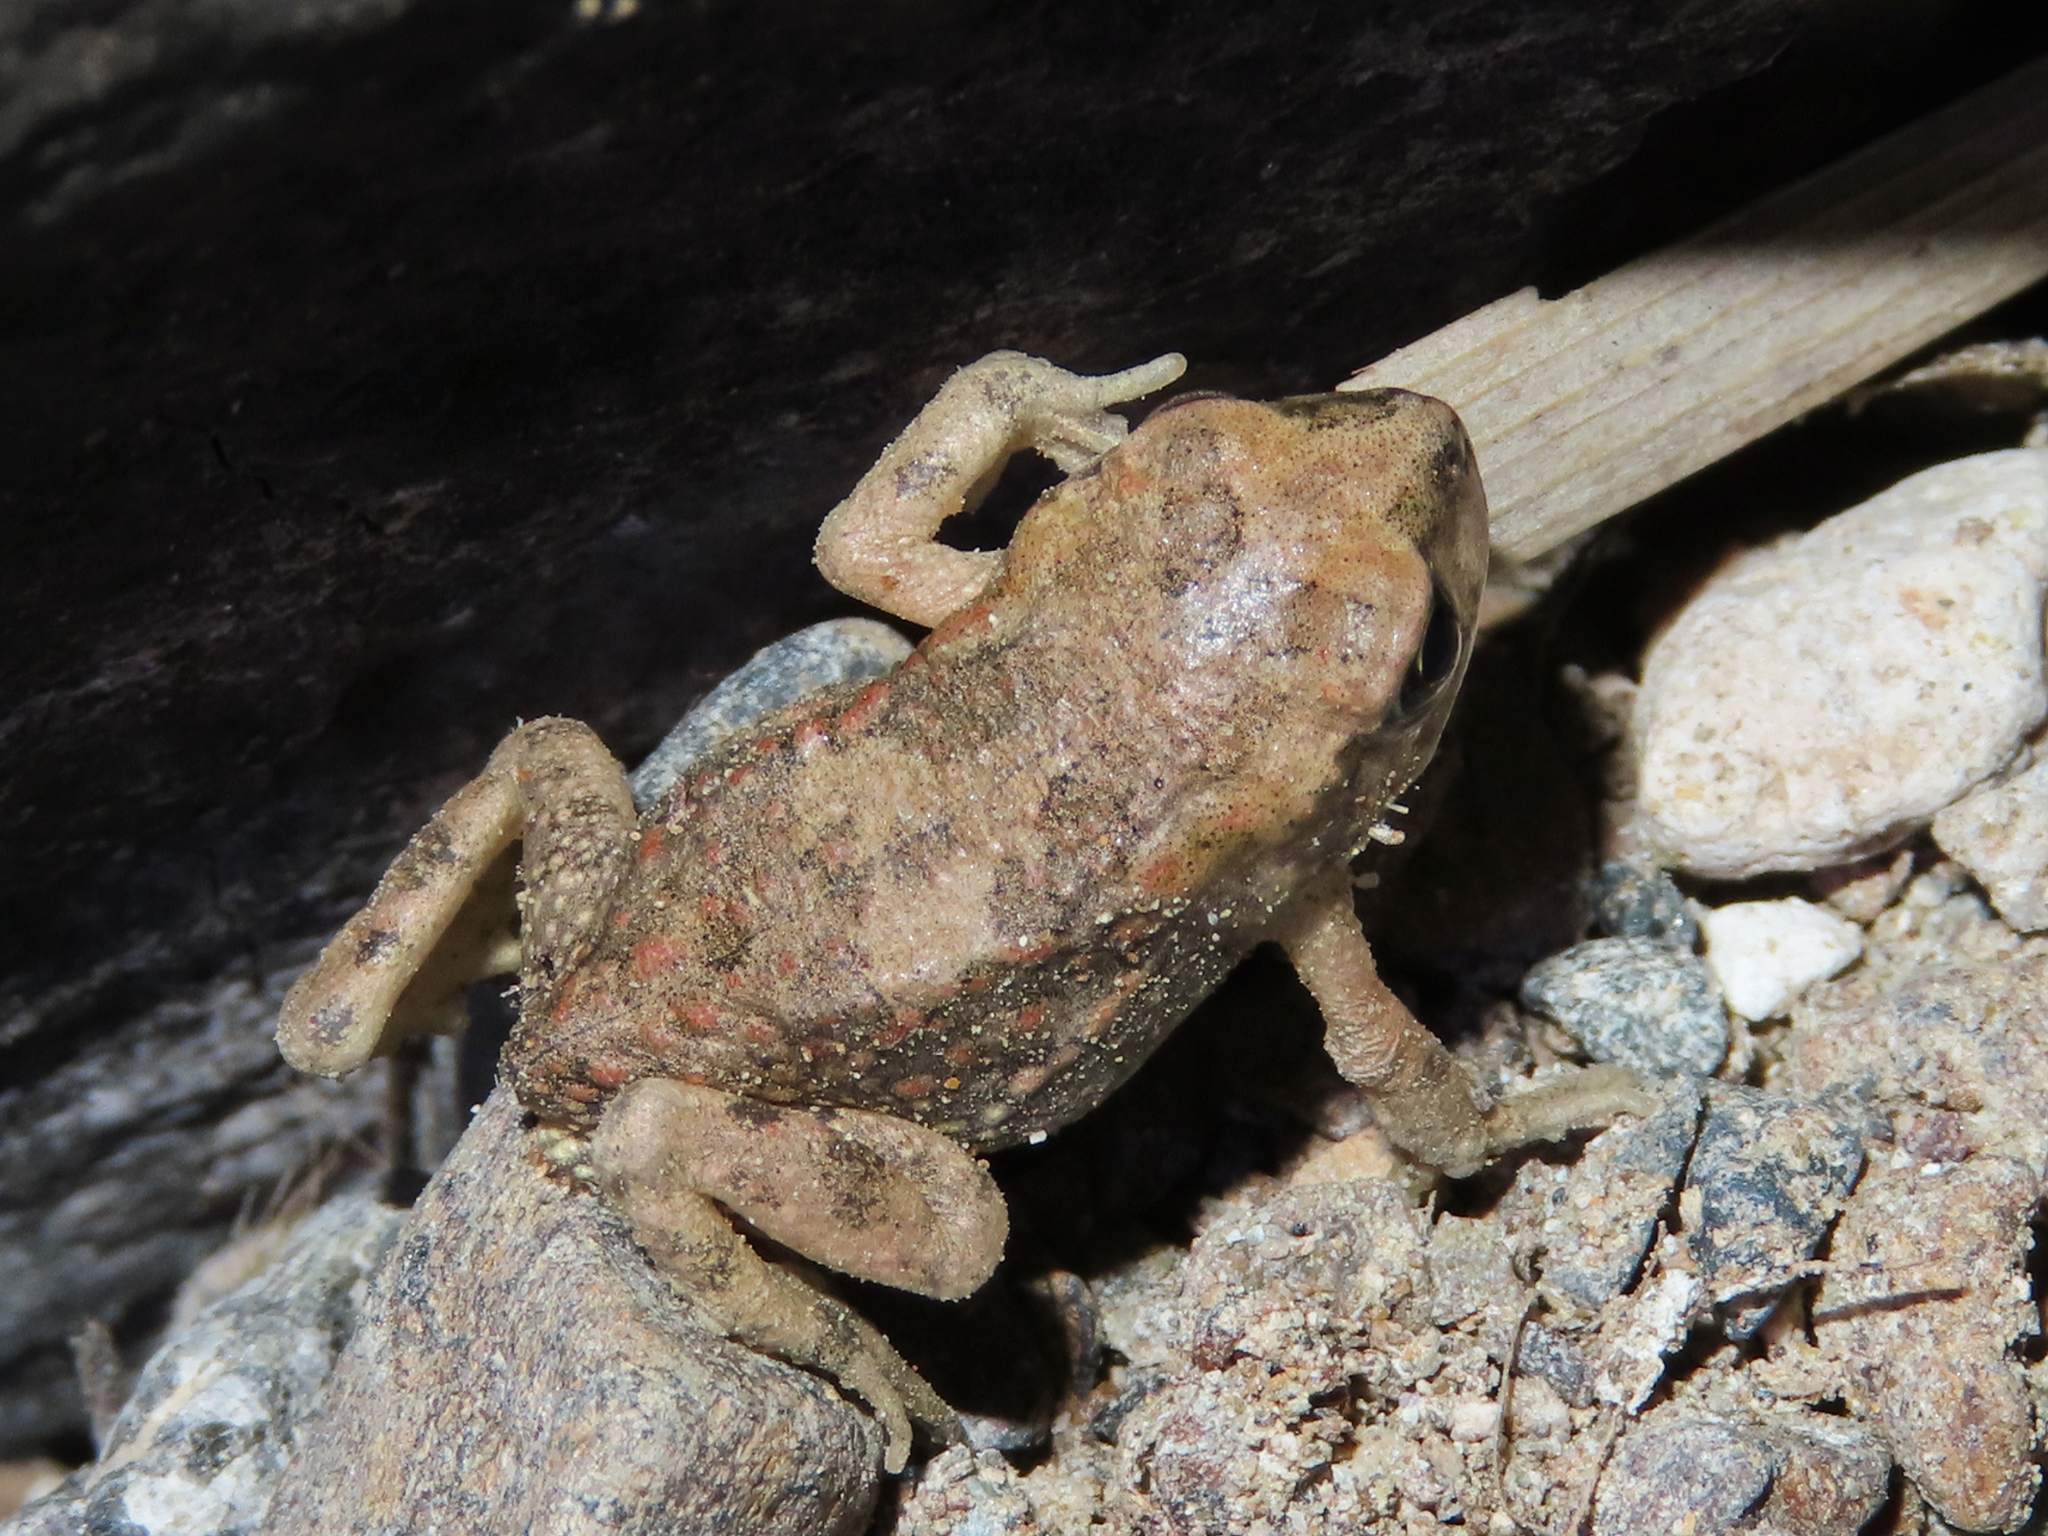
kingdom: Animalia
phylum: Chordata
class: Amphibia
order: Anura
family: Bufonidae
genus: Sclerophrys
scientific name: Sclerophrys arabica
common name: Arabian toad
